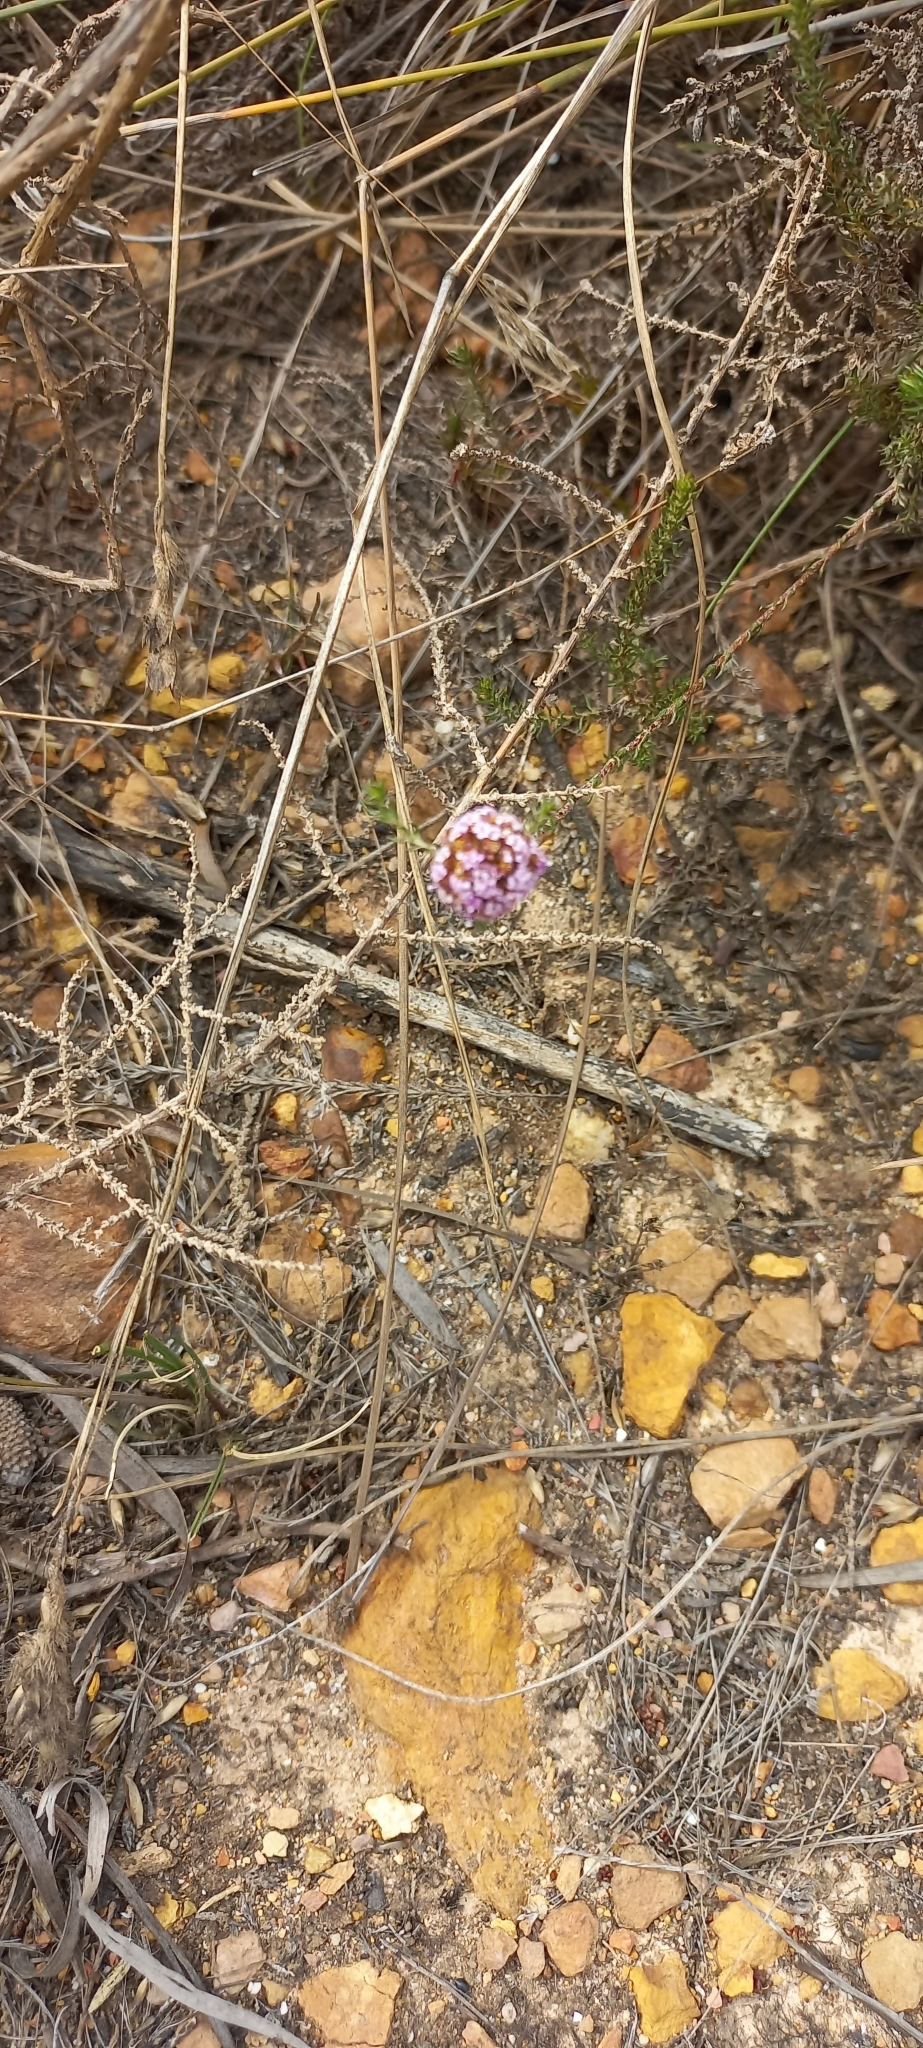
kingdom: Plantae
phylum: Tracheophyta
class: Magnoliopsida
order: Asterales
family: Asteraceae
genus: Stoebe
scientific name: Stoebe capitata
